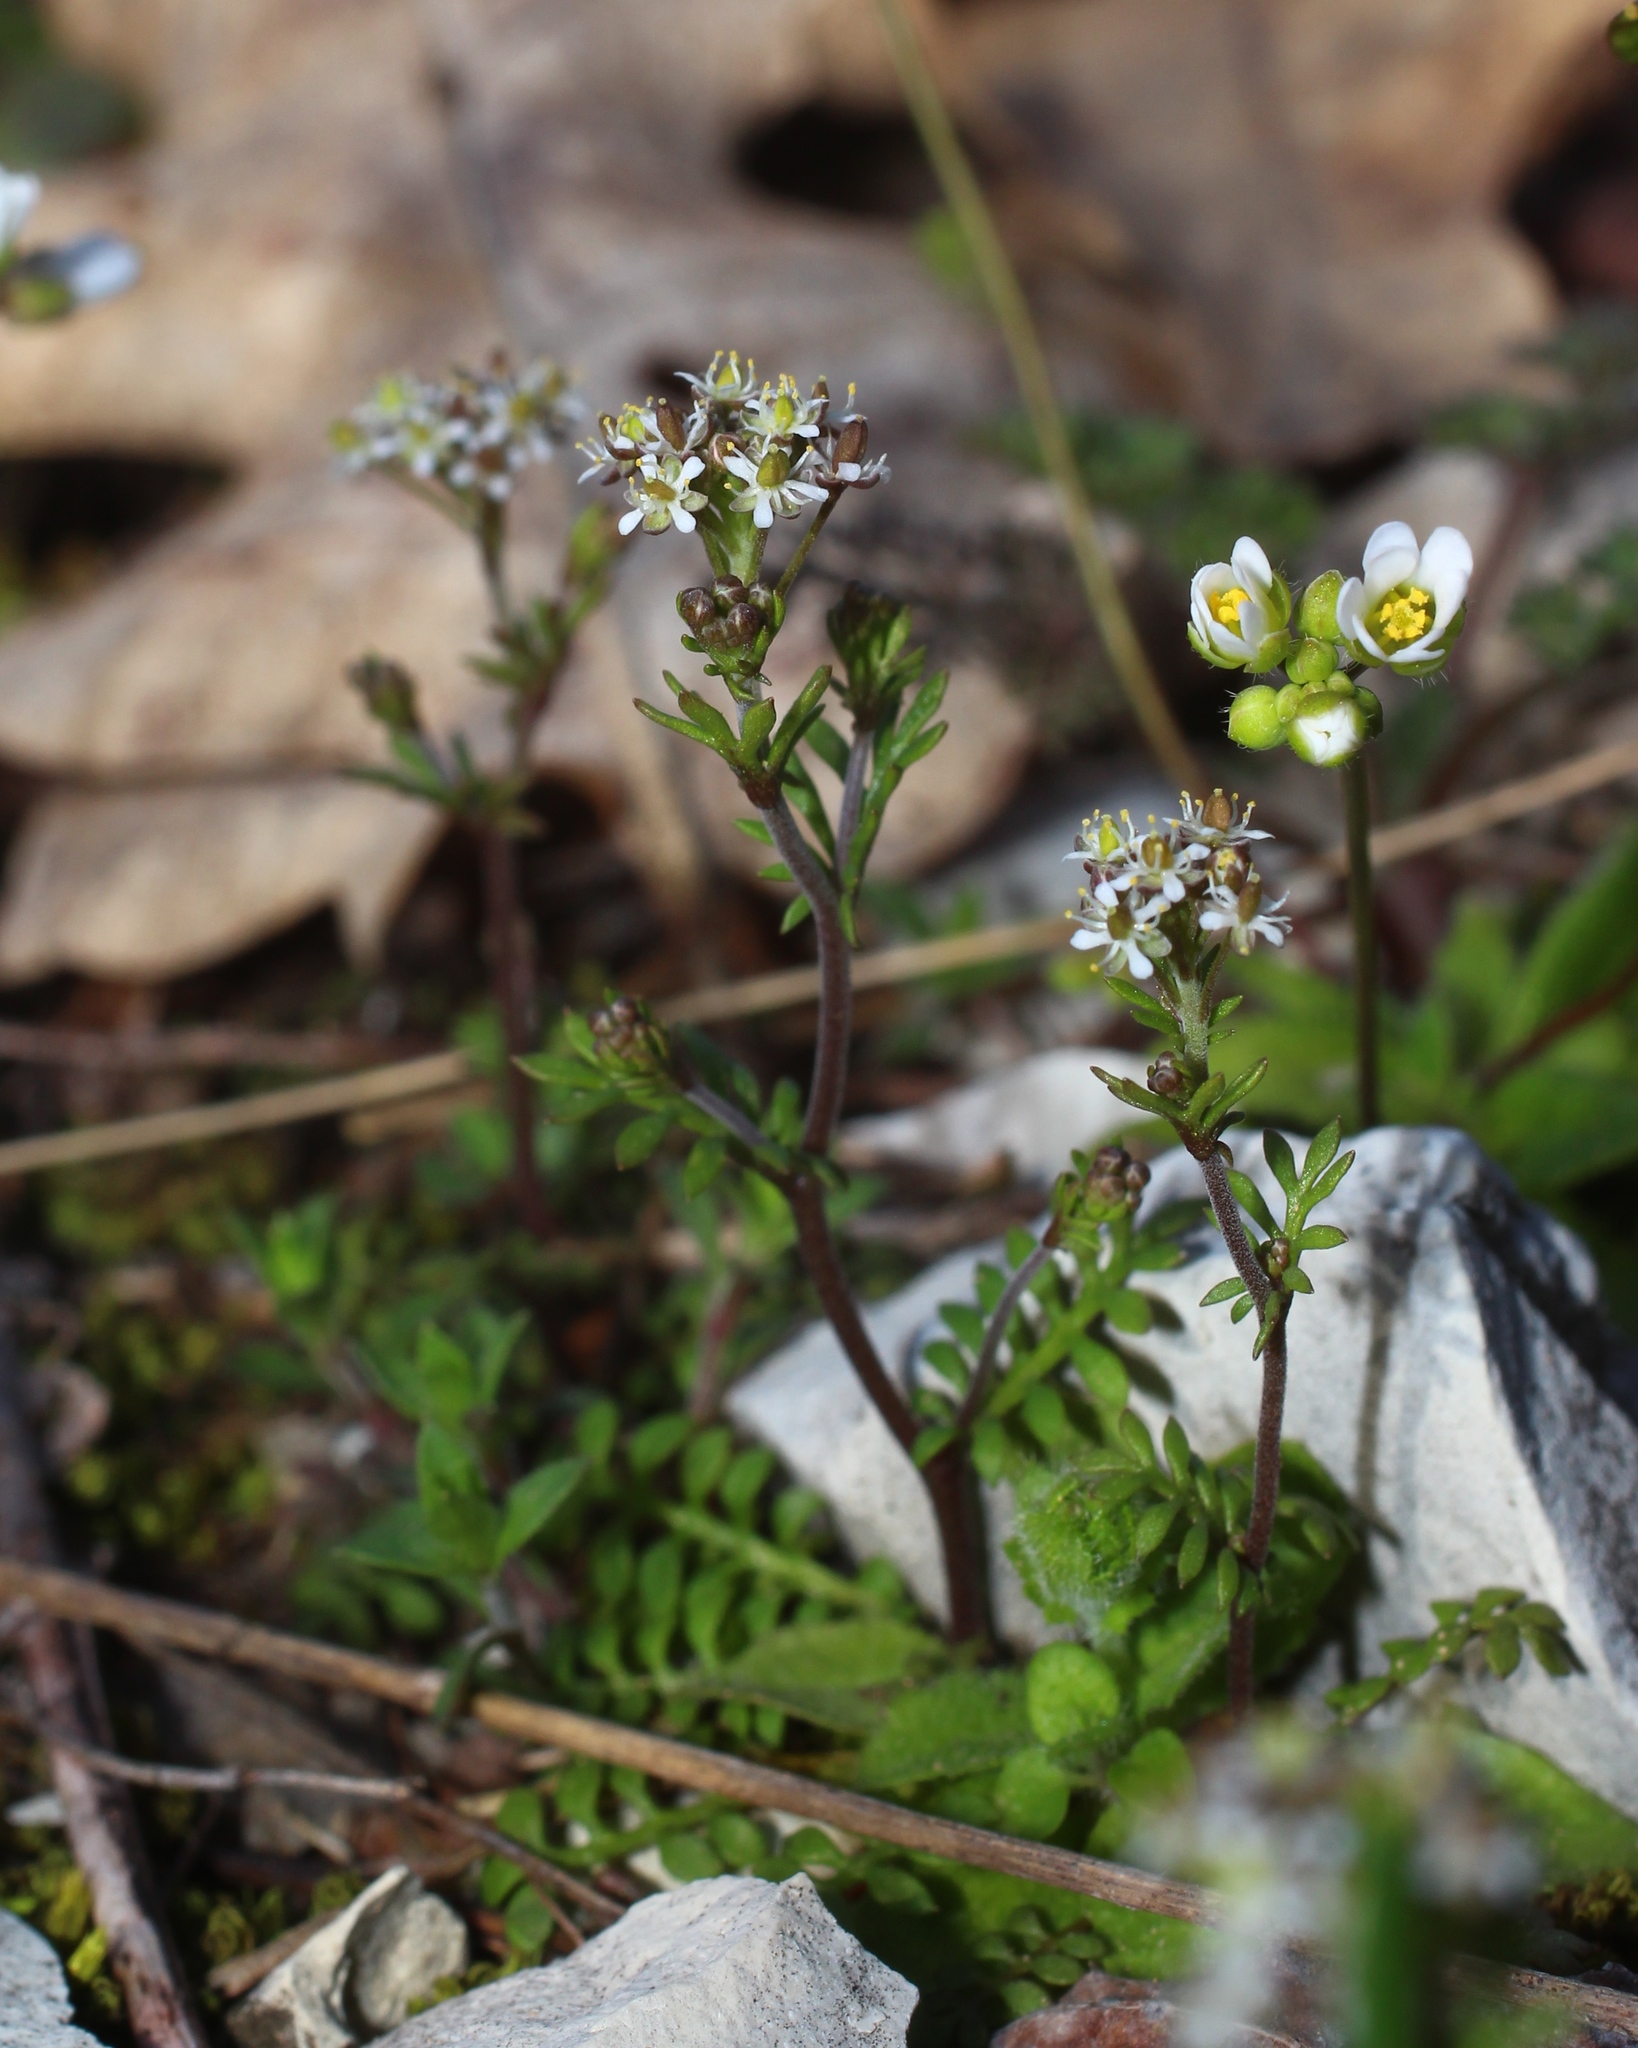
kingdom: Plantae
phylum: Tracheophyta
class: Magnoliopsida
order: Brassicales
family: Brassicaceae
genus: Hornungia
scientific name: Hornungia petraea
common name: Hutchinsia
